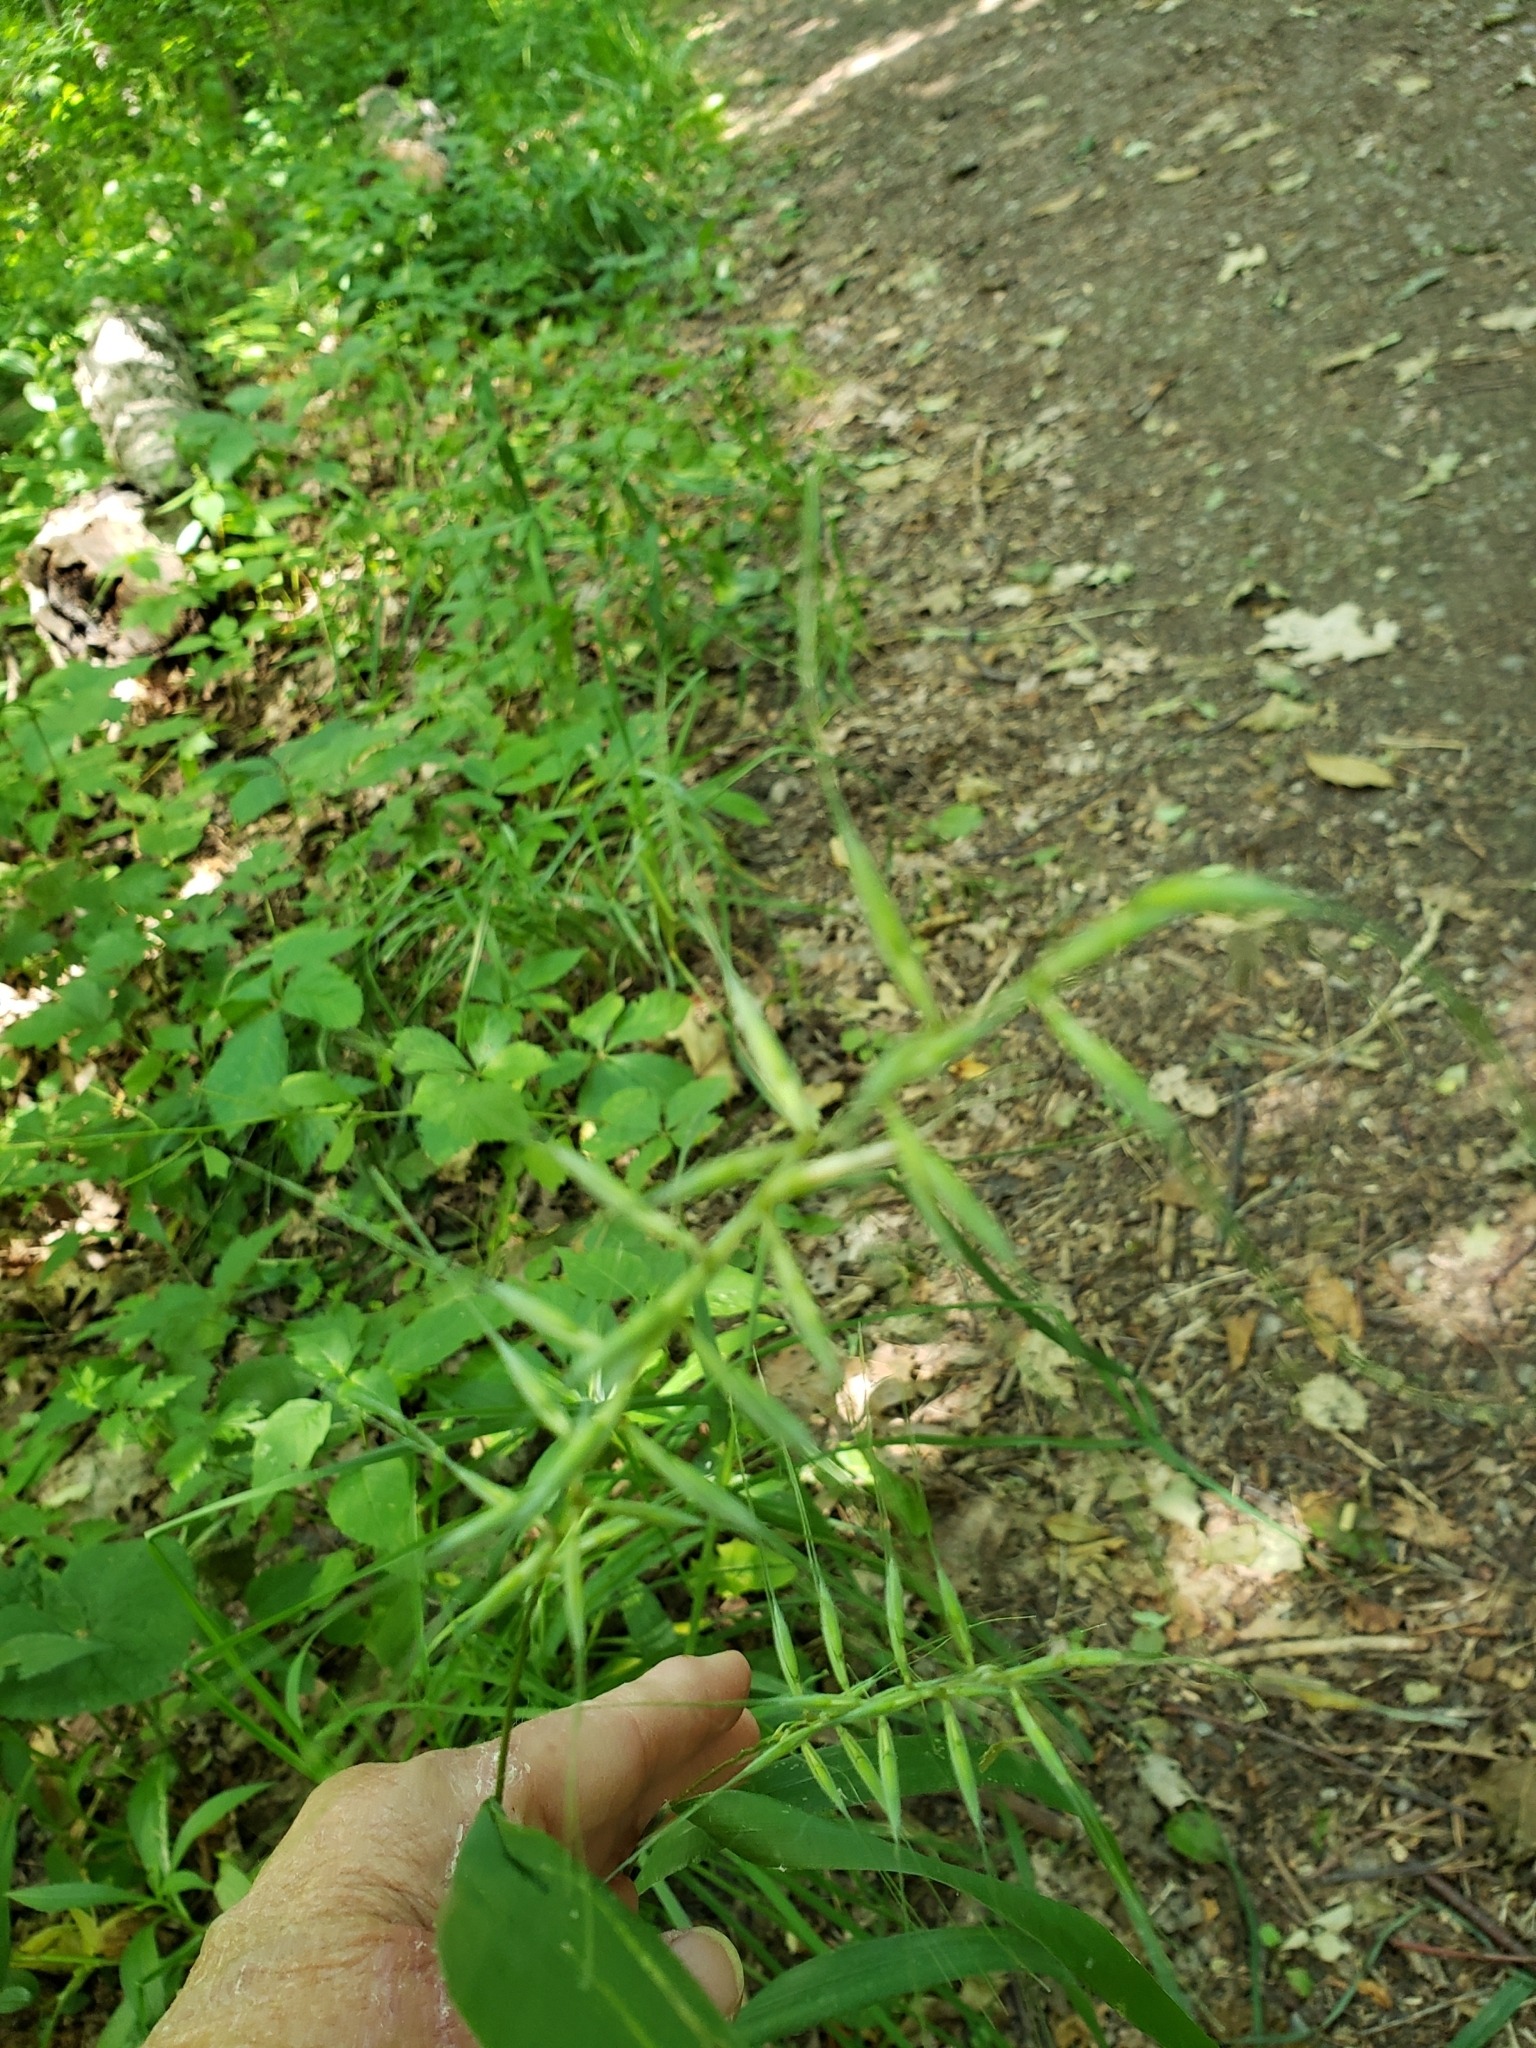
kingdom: Plantae
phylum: Tracheophyta
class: Liliopsida
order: Poales
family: Poaceae
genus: Elymus
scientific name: Elymus hystrix
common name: Bottlebrush grass
